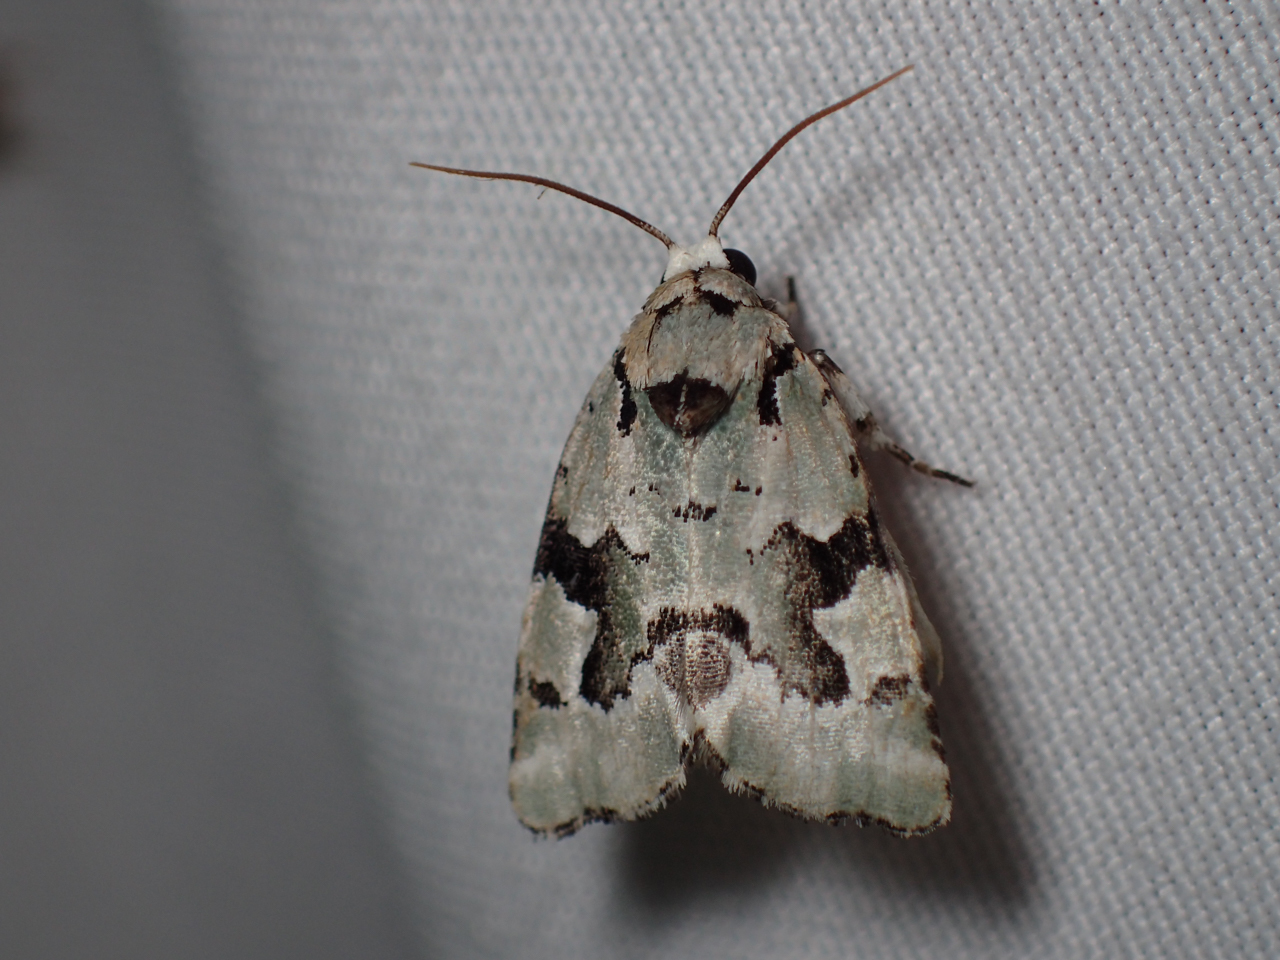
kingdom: Animalia
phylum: Arthropoda
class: Insecta
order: Lepidoptera
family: Noctuidae
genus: Emarginea
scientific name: Emarginea percara
